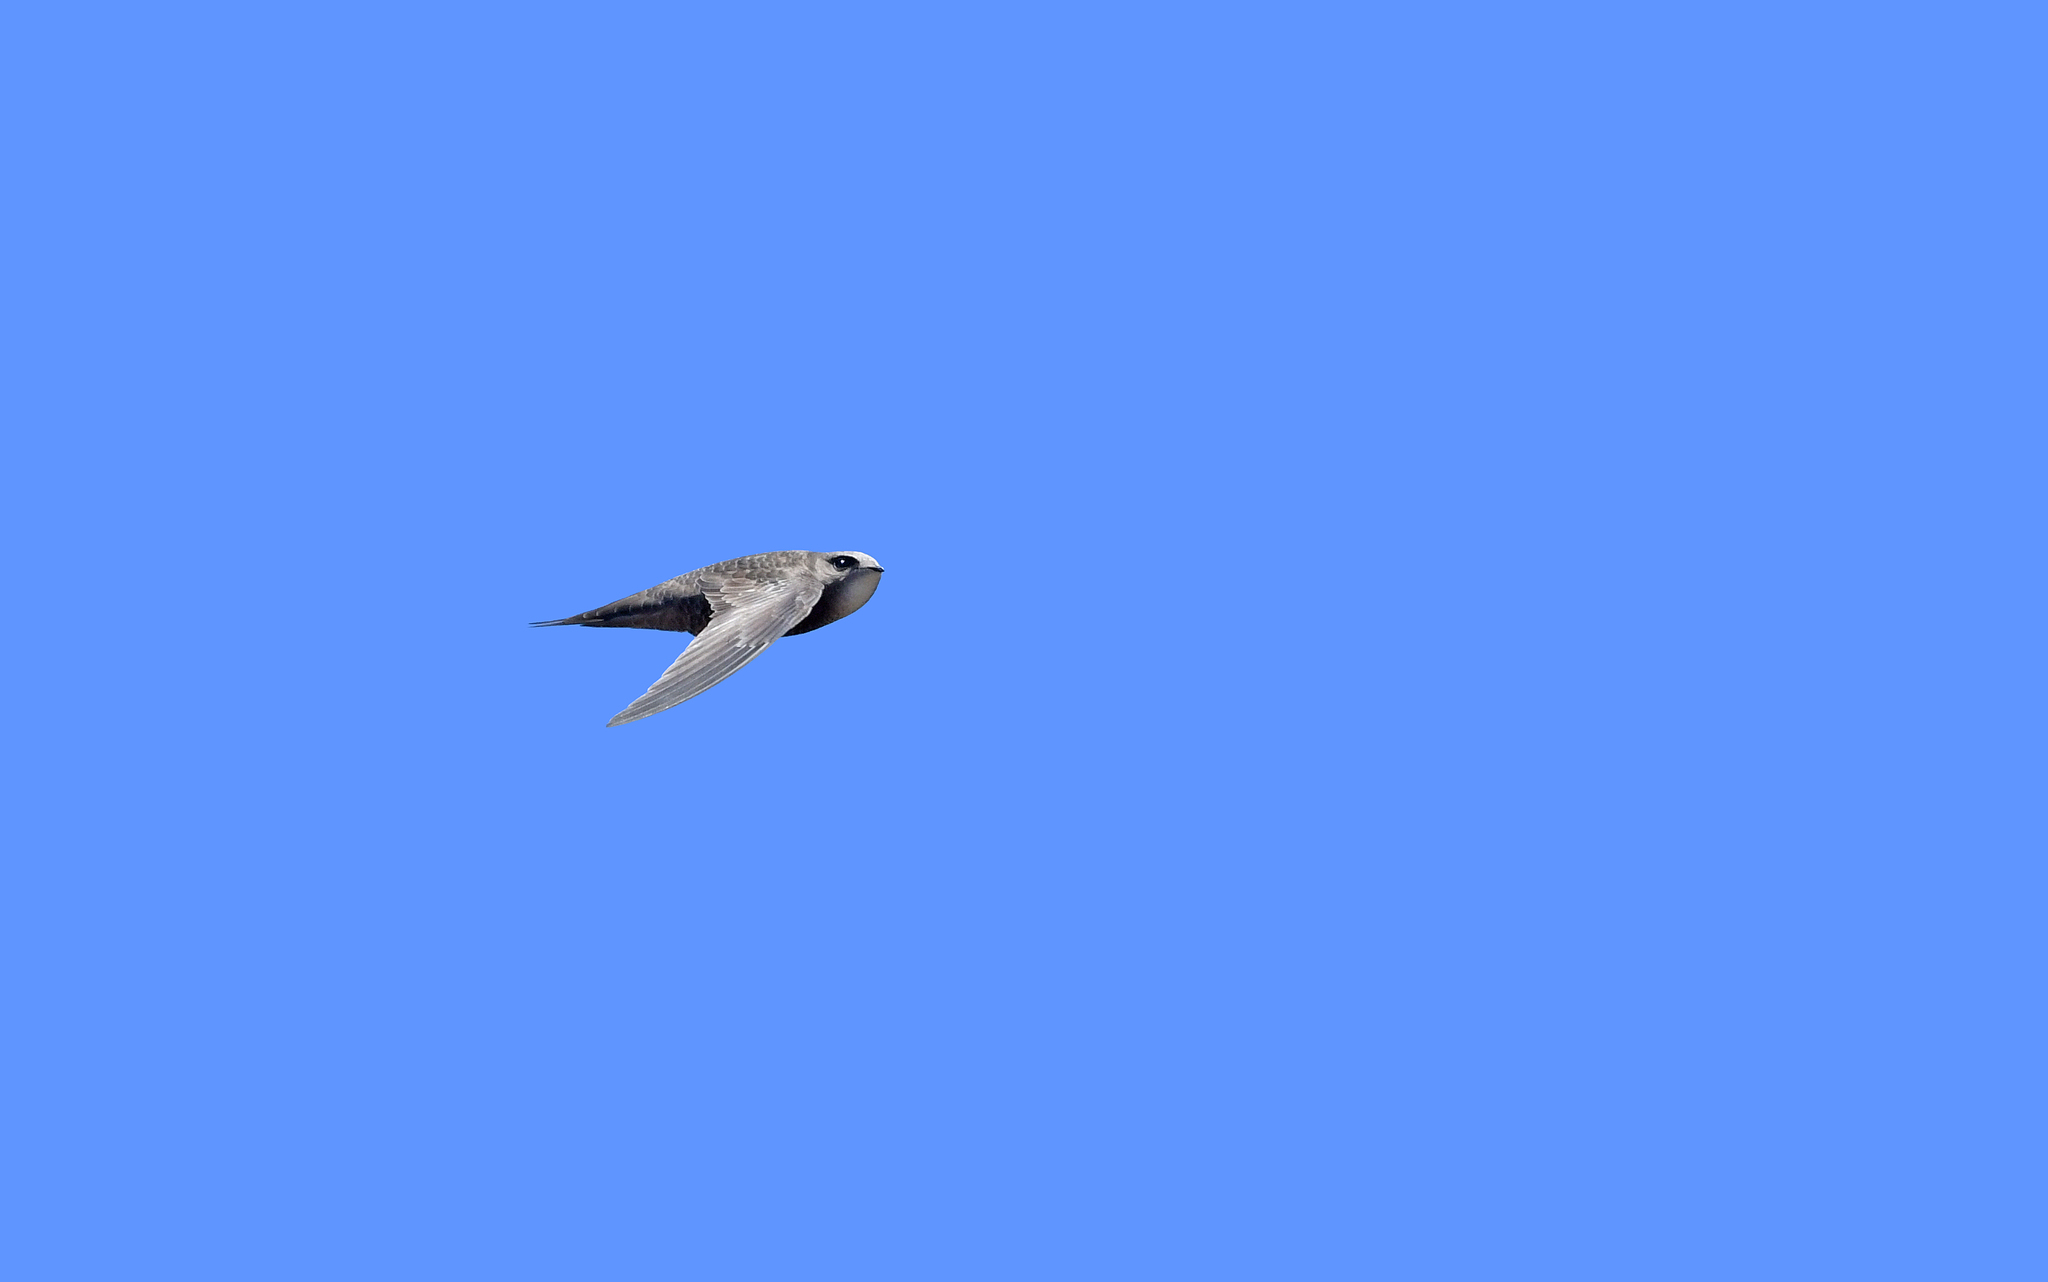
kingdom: Animalia
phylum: Chordata
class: Aves
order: Apodiformes
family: Apodidae
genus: Apus
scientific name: Apus pallidus
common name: Pallid swift
